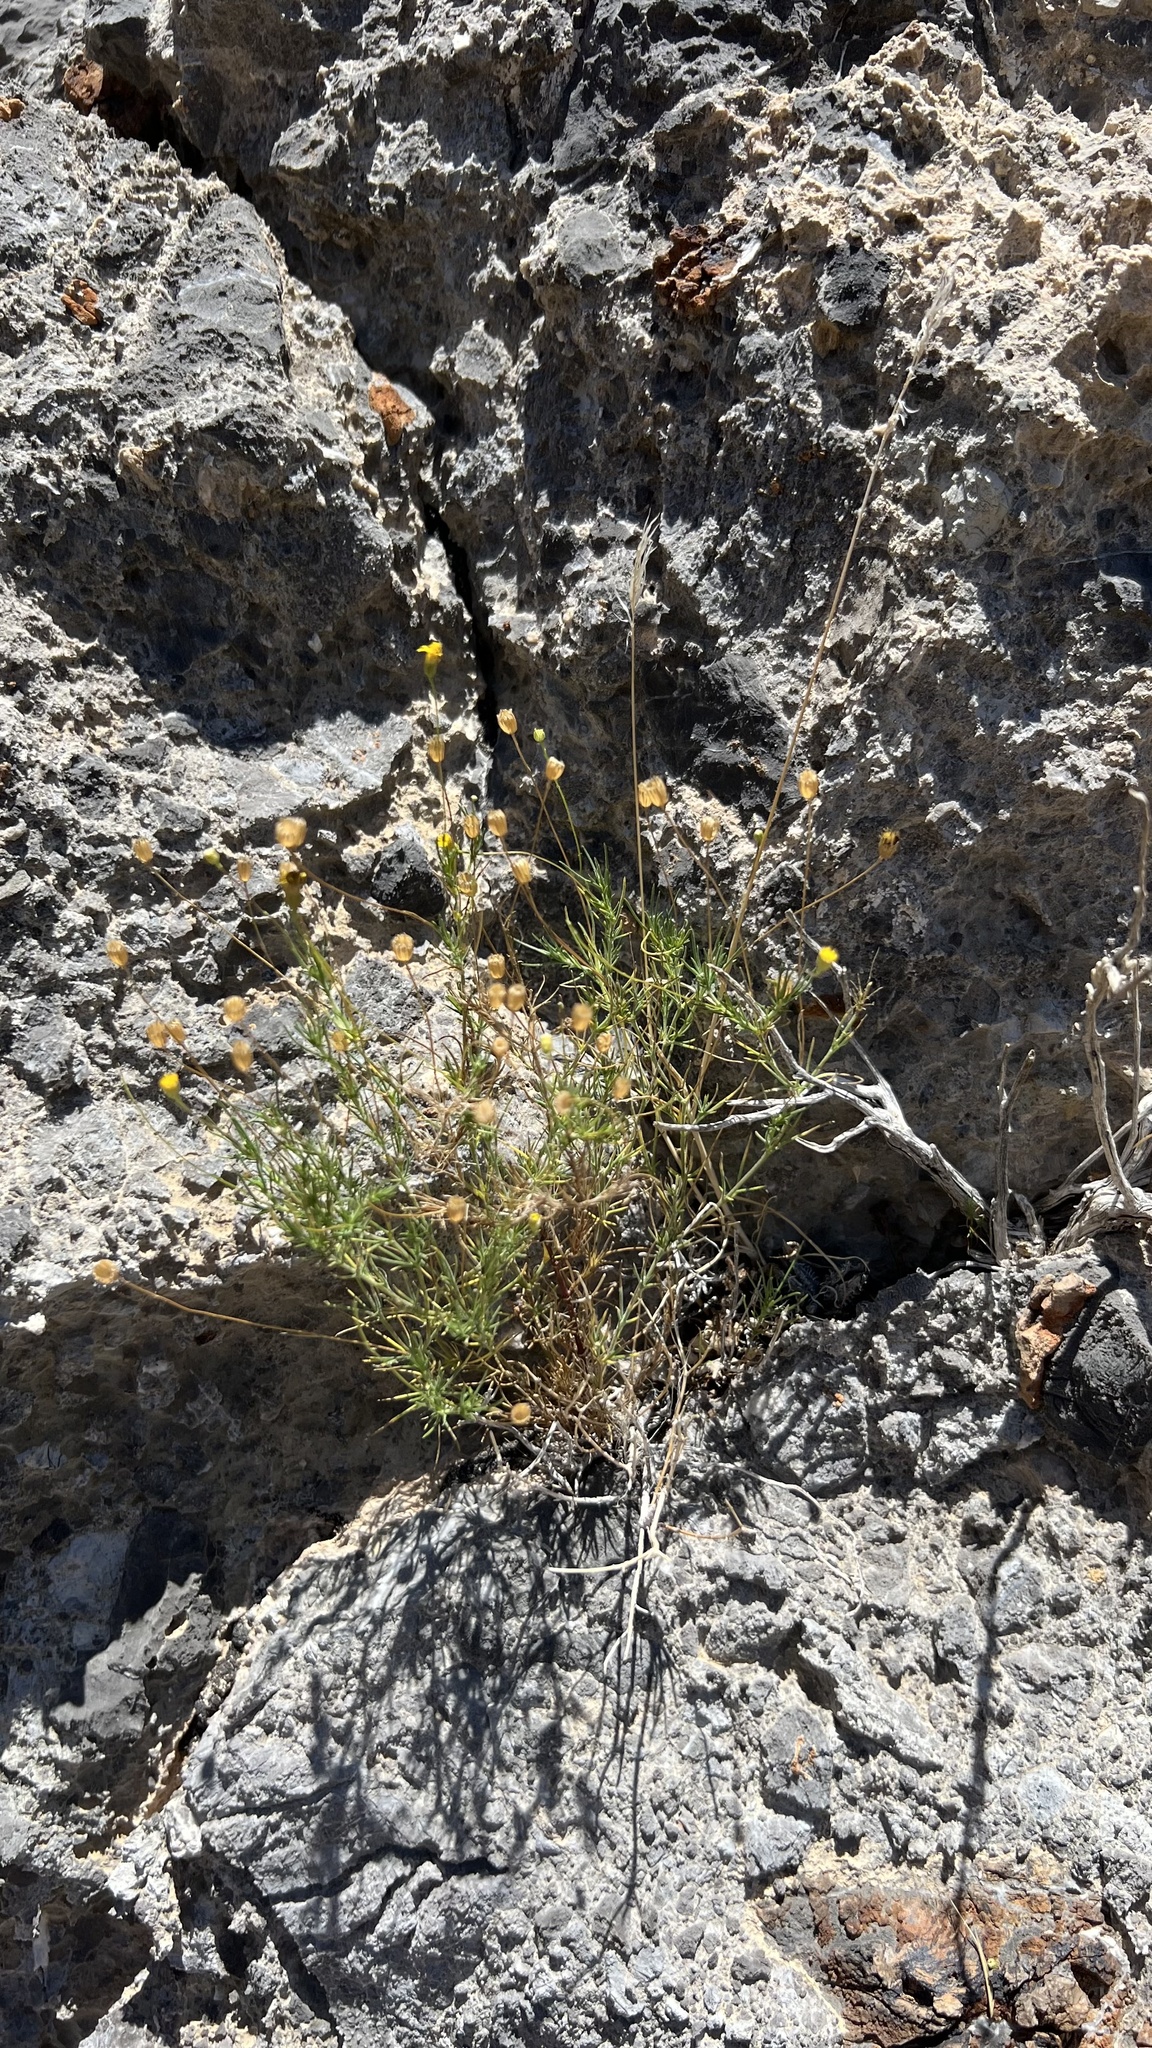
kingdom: Plantae
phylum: Tracheophyta
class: Magnoliopsida
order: Asterales
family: Asteraceae
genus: Thymophylla
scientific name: Thymophylla pentachaeta
